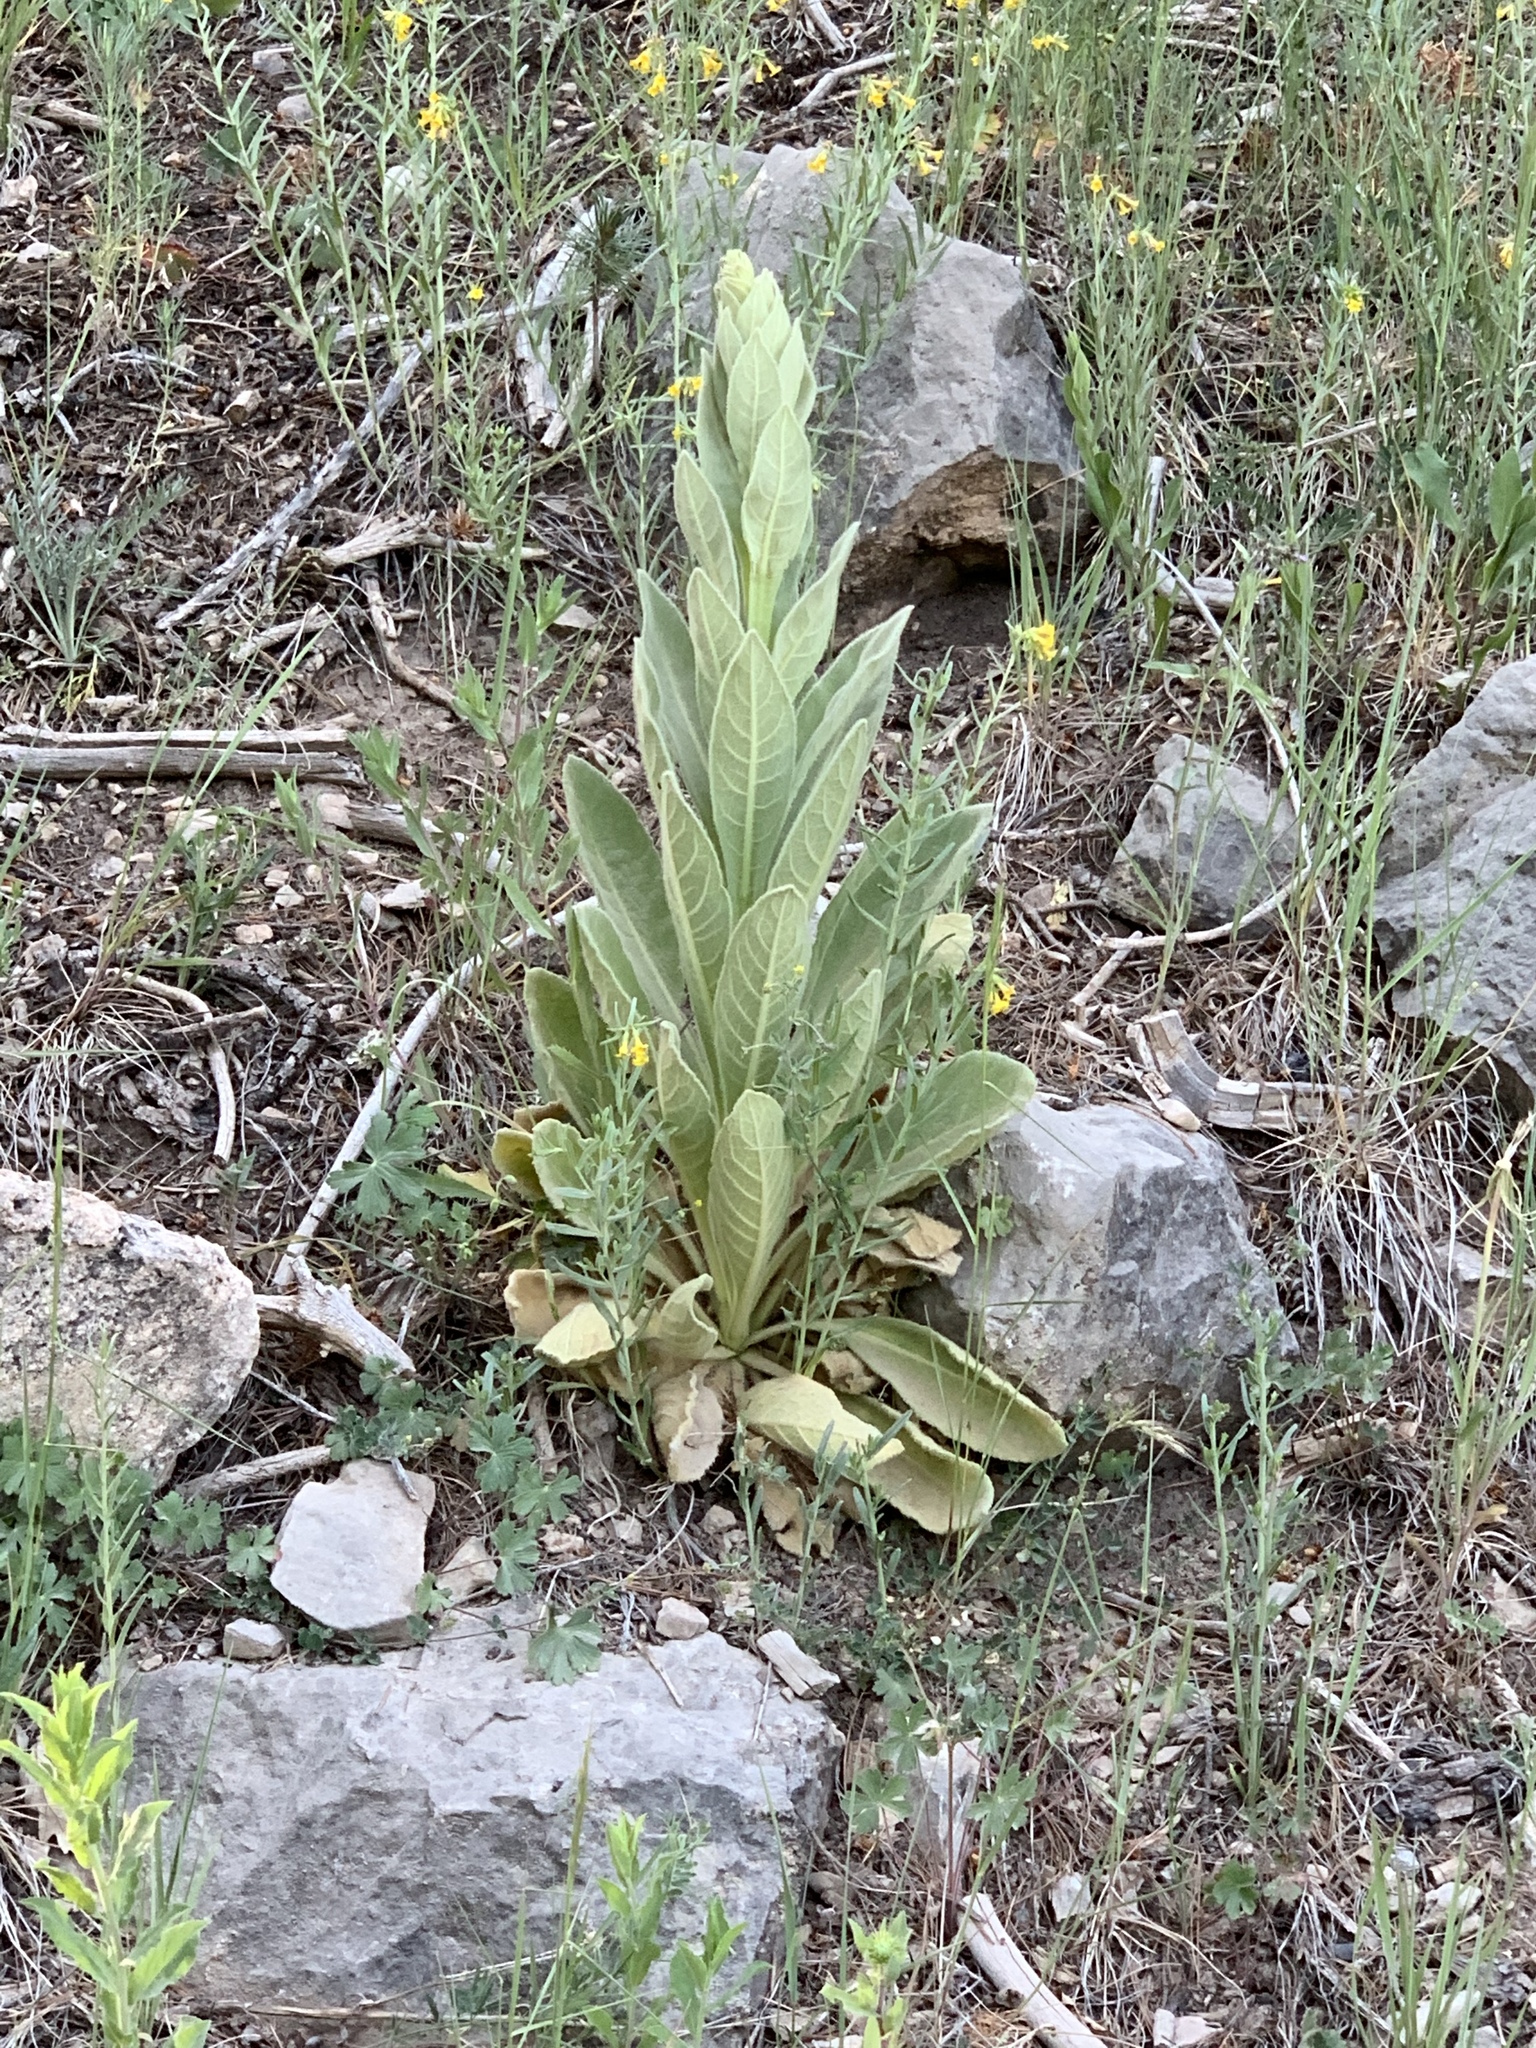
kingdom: Plantae
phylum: Tracheophyta
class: Magnoliopsida
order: Lamiales
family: Scrophulariaceae
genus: Verbascum
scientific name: Verbascum thapsus
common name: Common mullein
